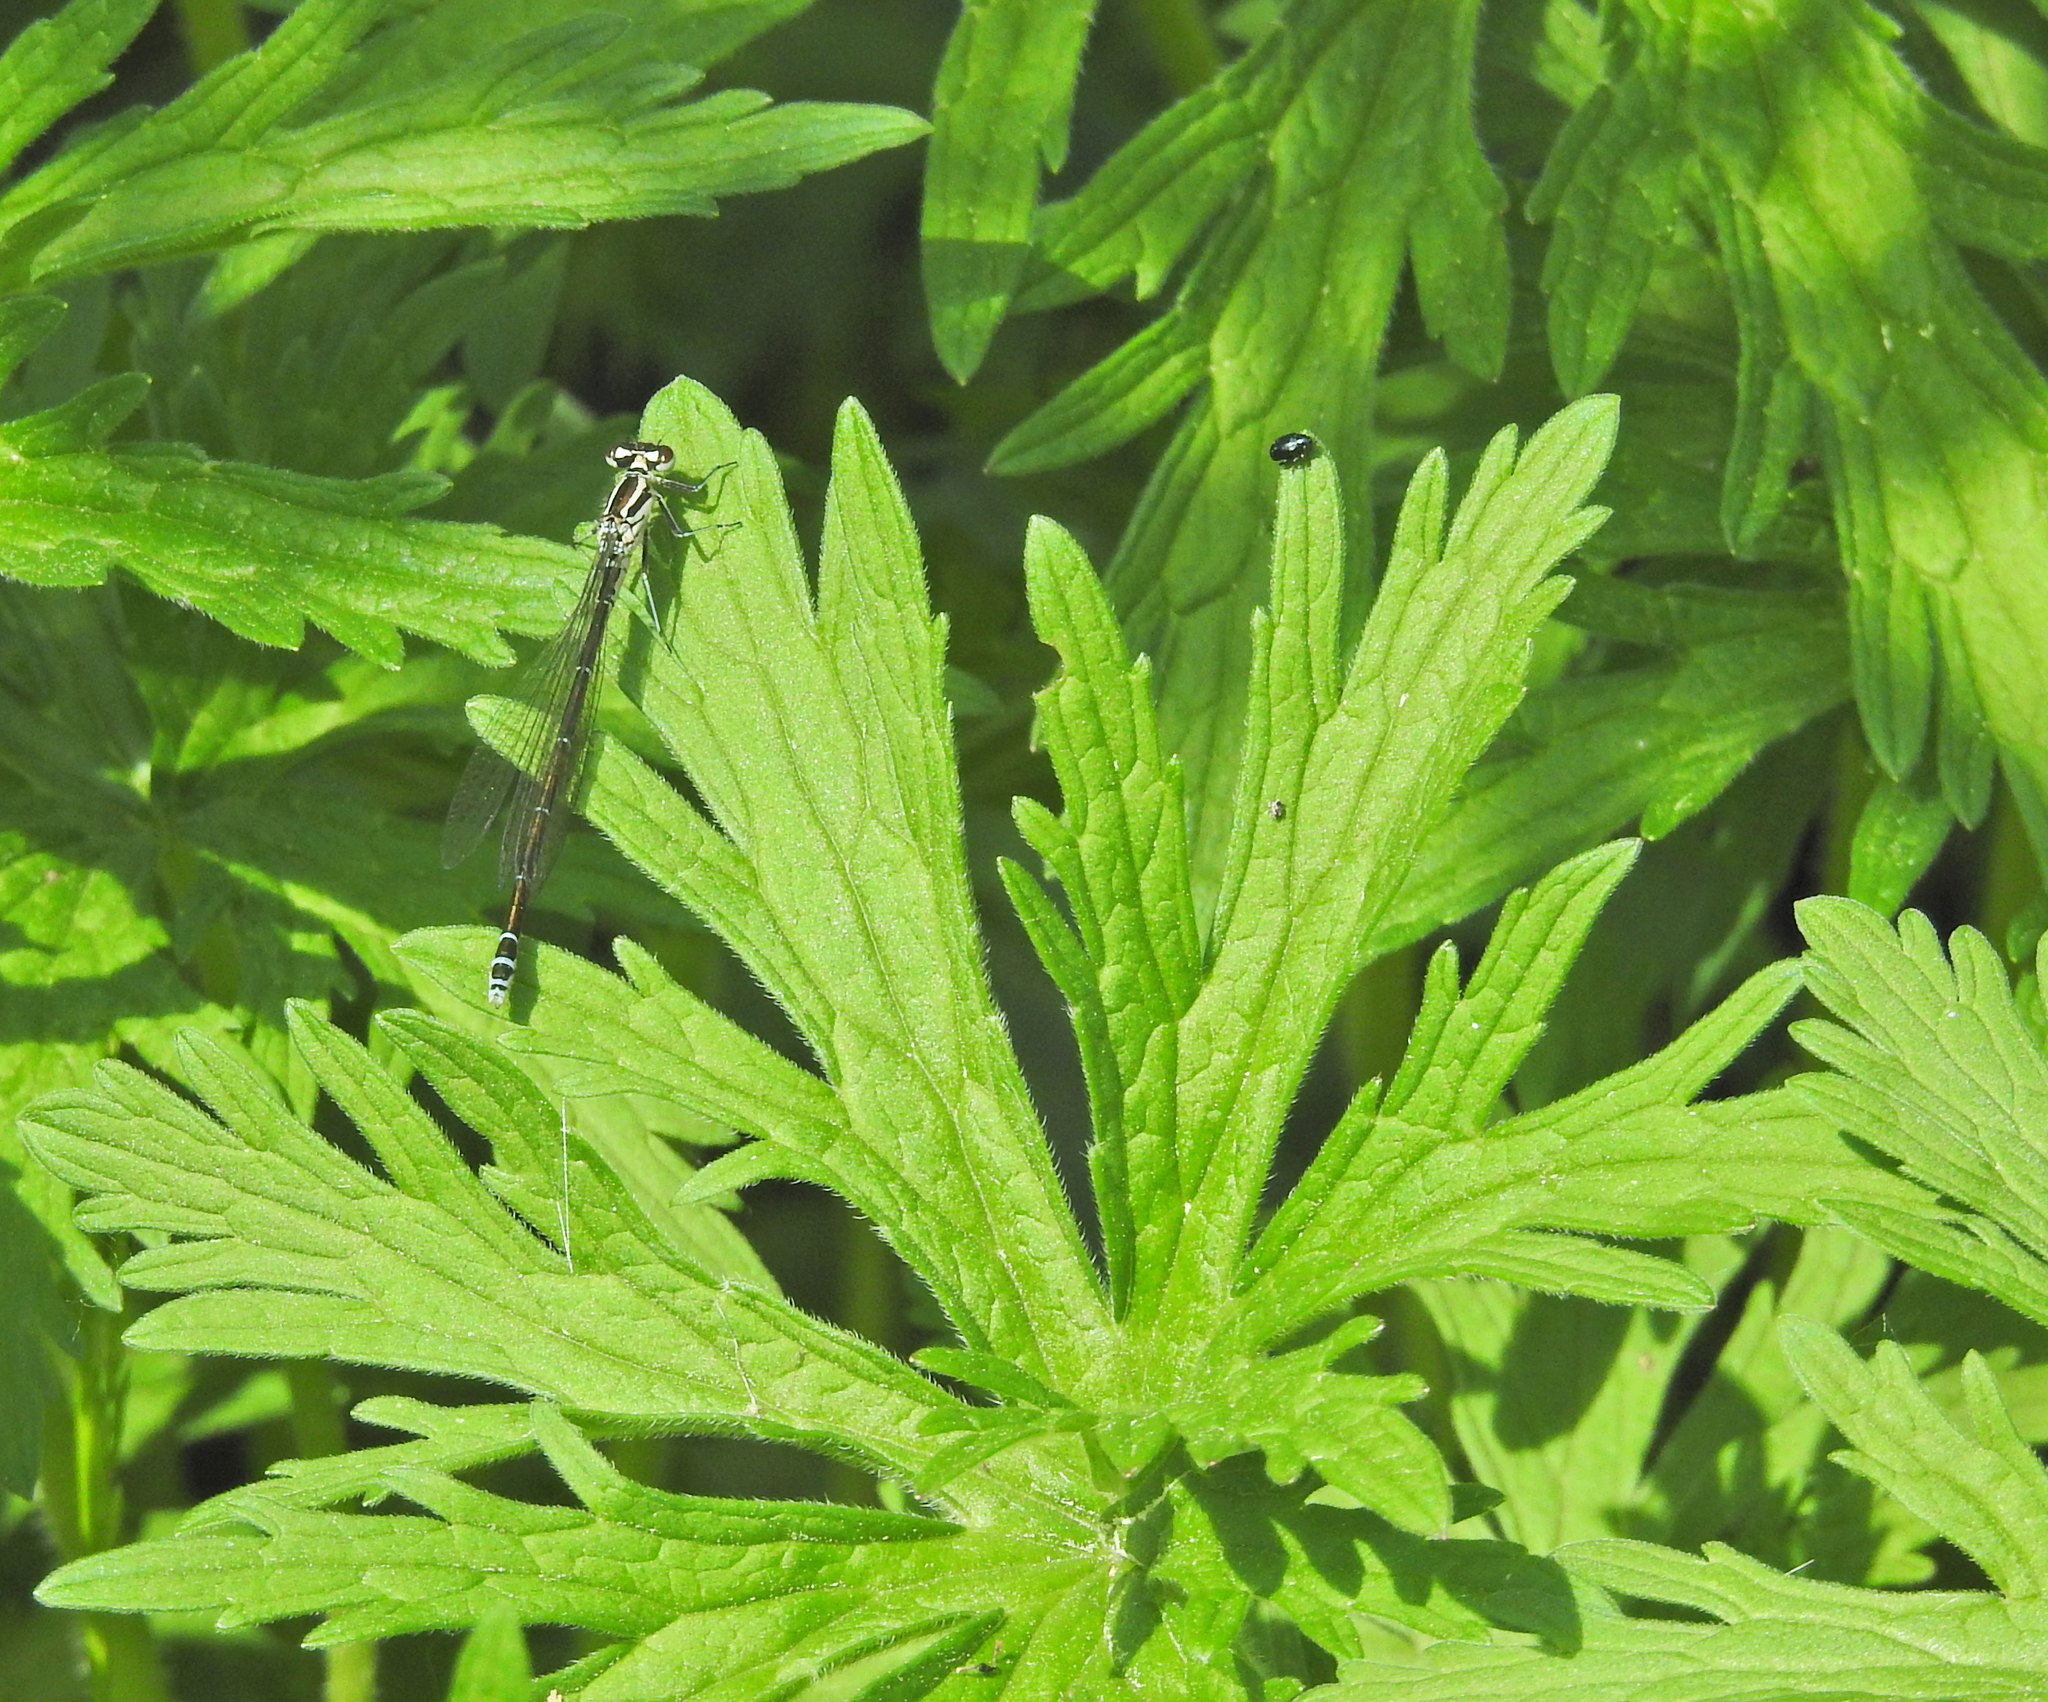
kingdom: Animalia
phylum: Arthropoda
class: Insecta
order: Odonata
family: Coenagrionidae
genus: Coenagrion
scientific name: Coenagrion puella
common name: Azure damselfly
